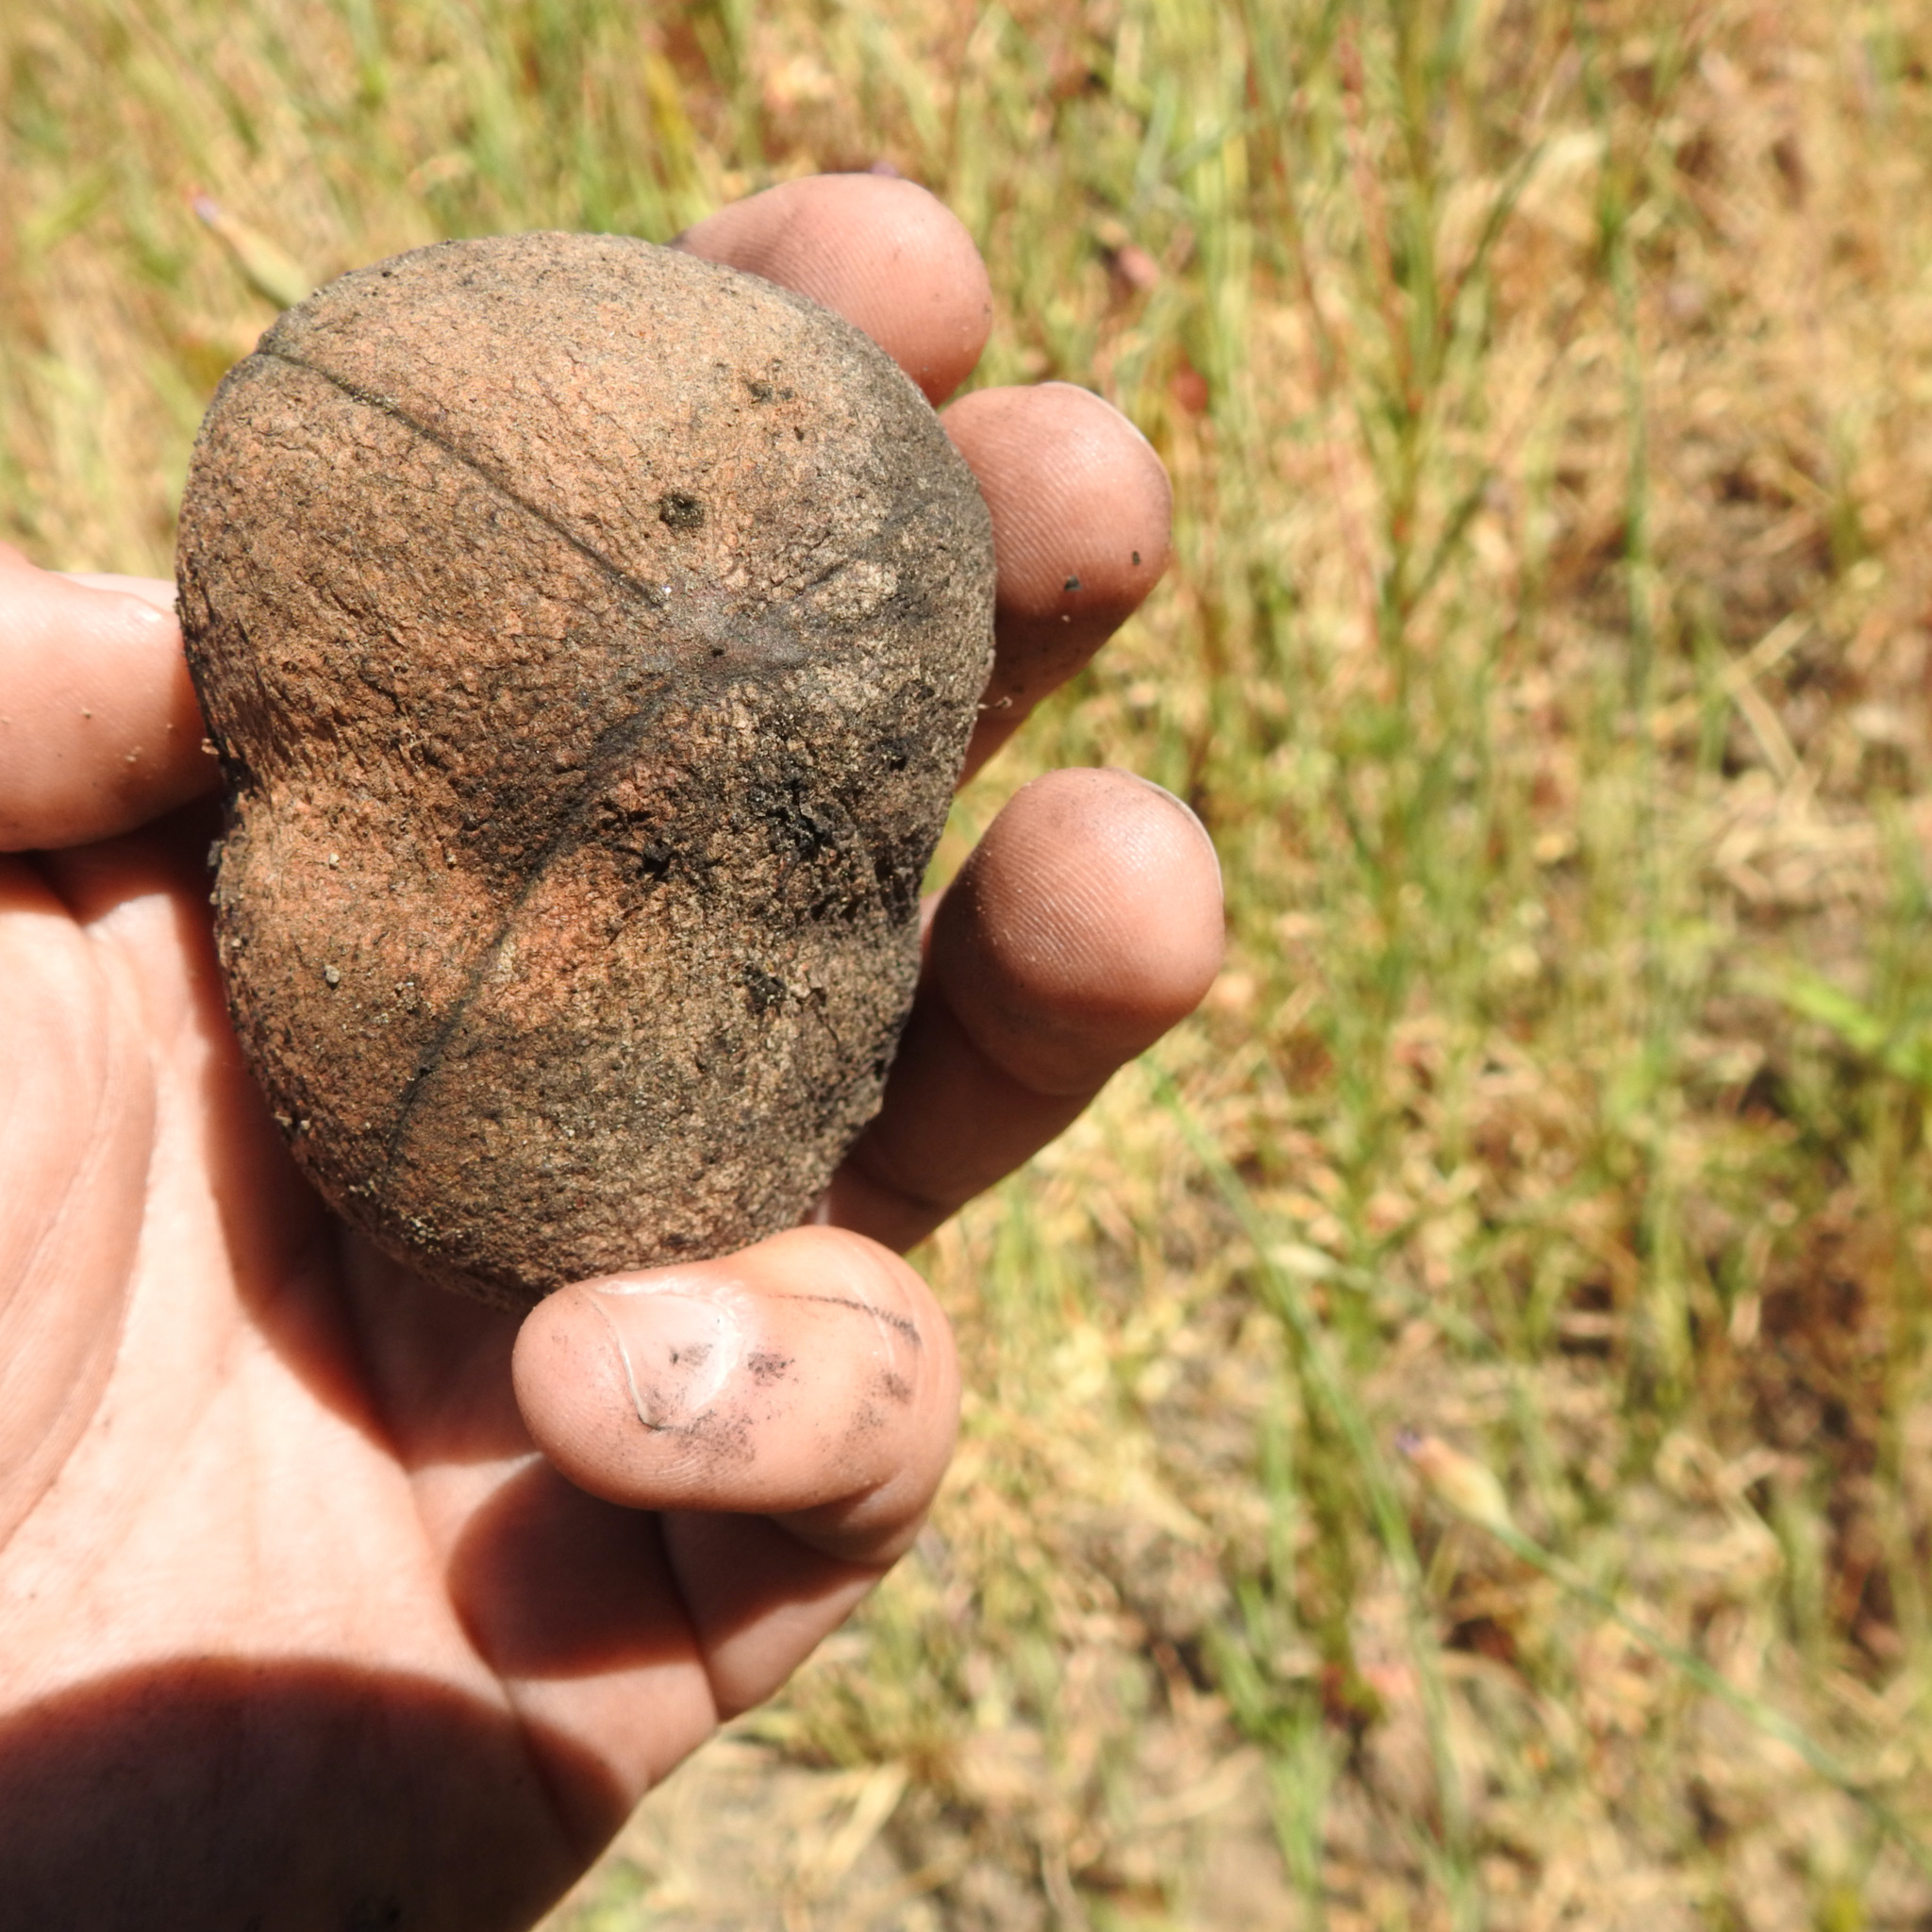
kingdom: Animalia
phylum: Arthropoda
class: Insecta
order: Hymenoptera
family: Cynipidae
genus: Andricus
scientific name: Andricus quercuscalifornicus
